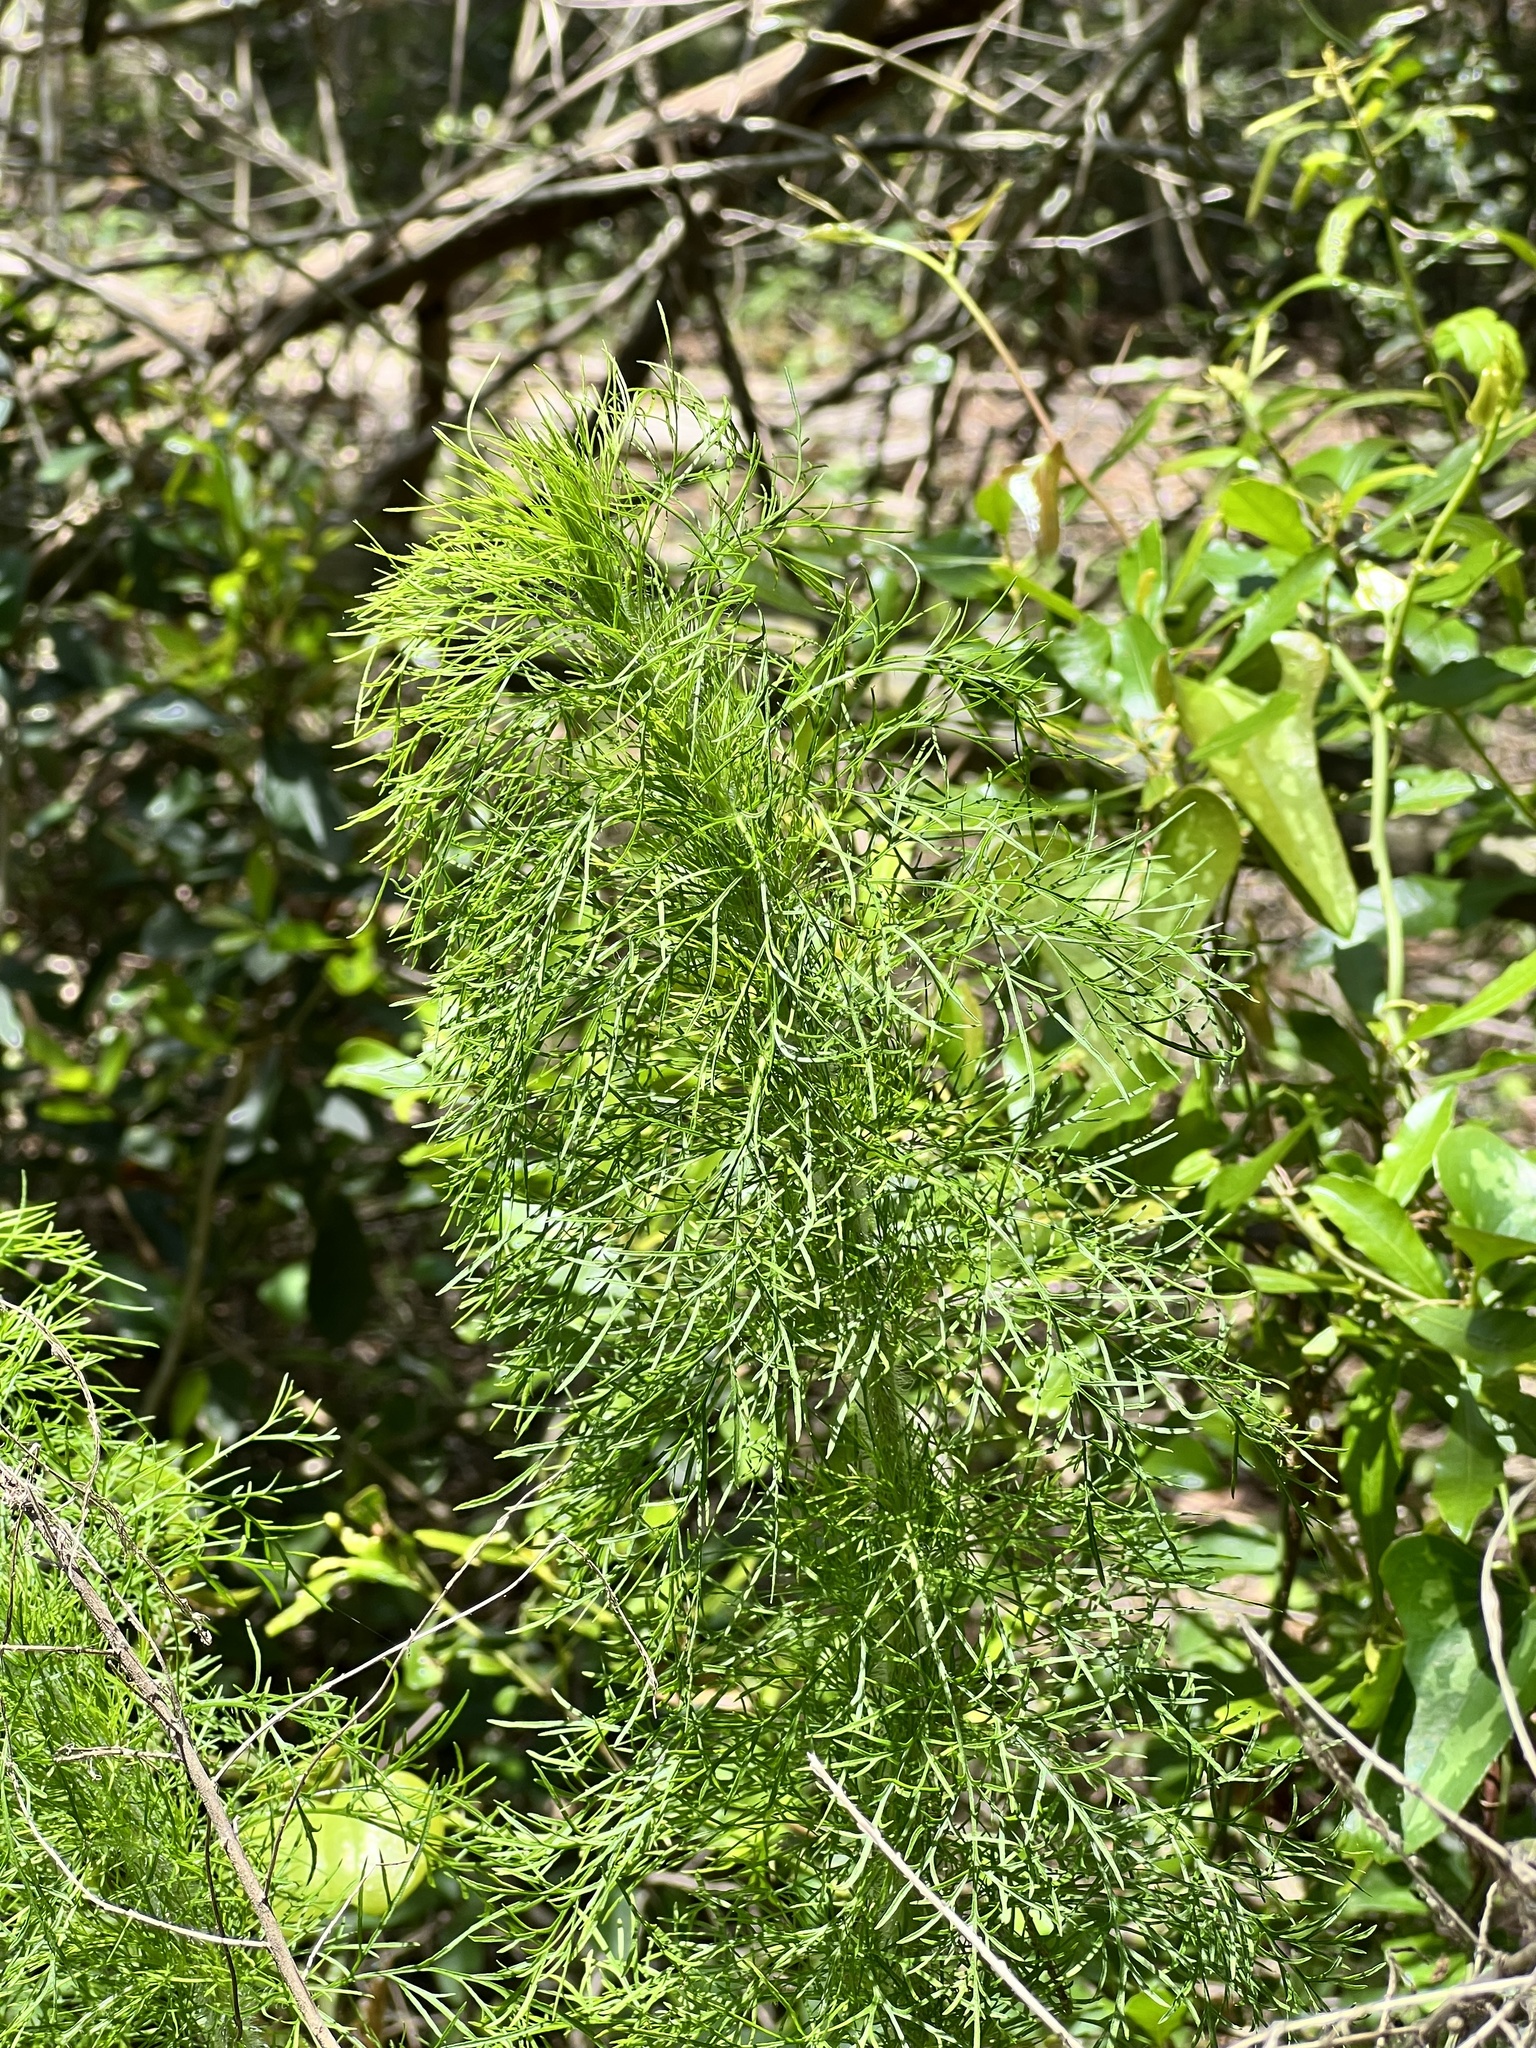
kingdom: Plantae
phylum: Tracheophyta
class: Magnoliopsida
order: Asterales
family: Asteraceae
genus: Eupatorium
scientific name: Eupatorium capillifolium
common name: Dog-fennel
